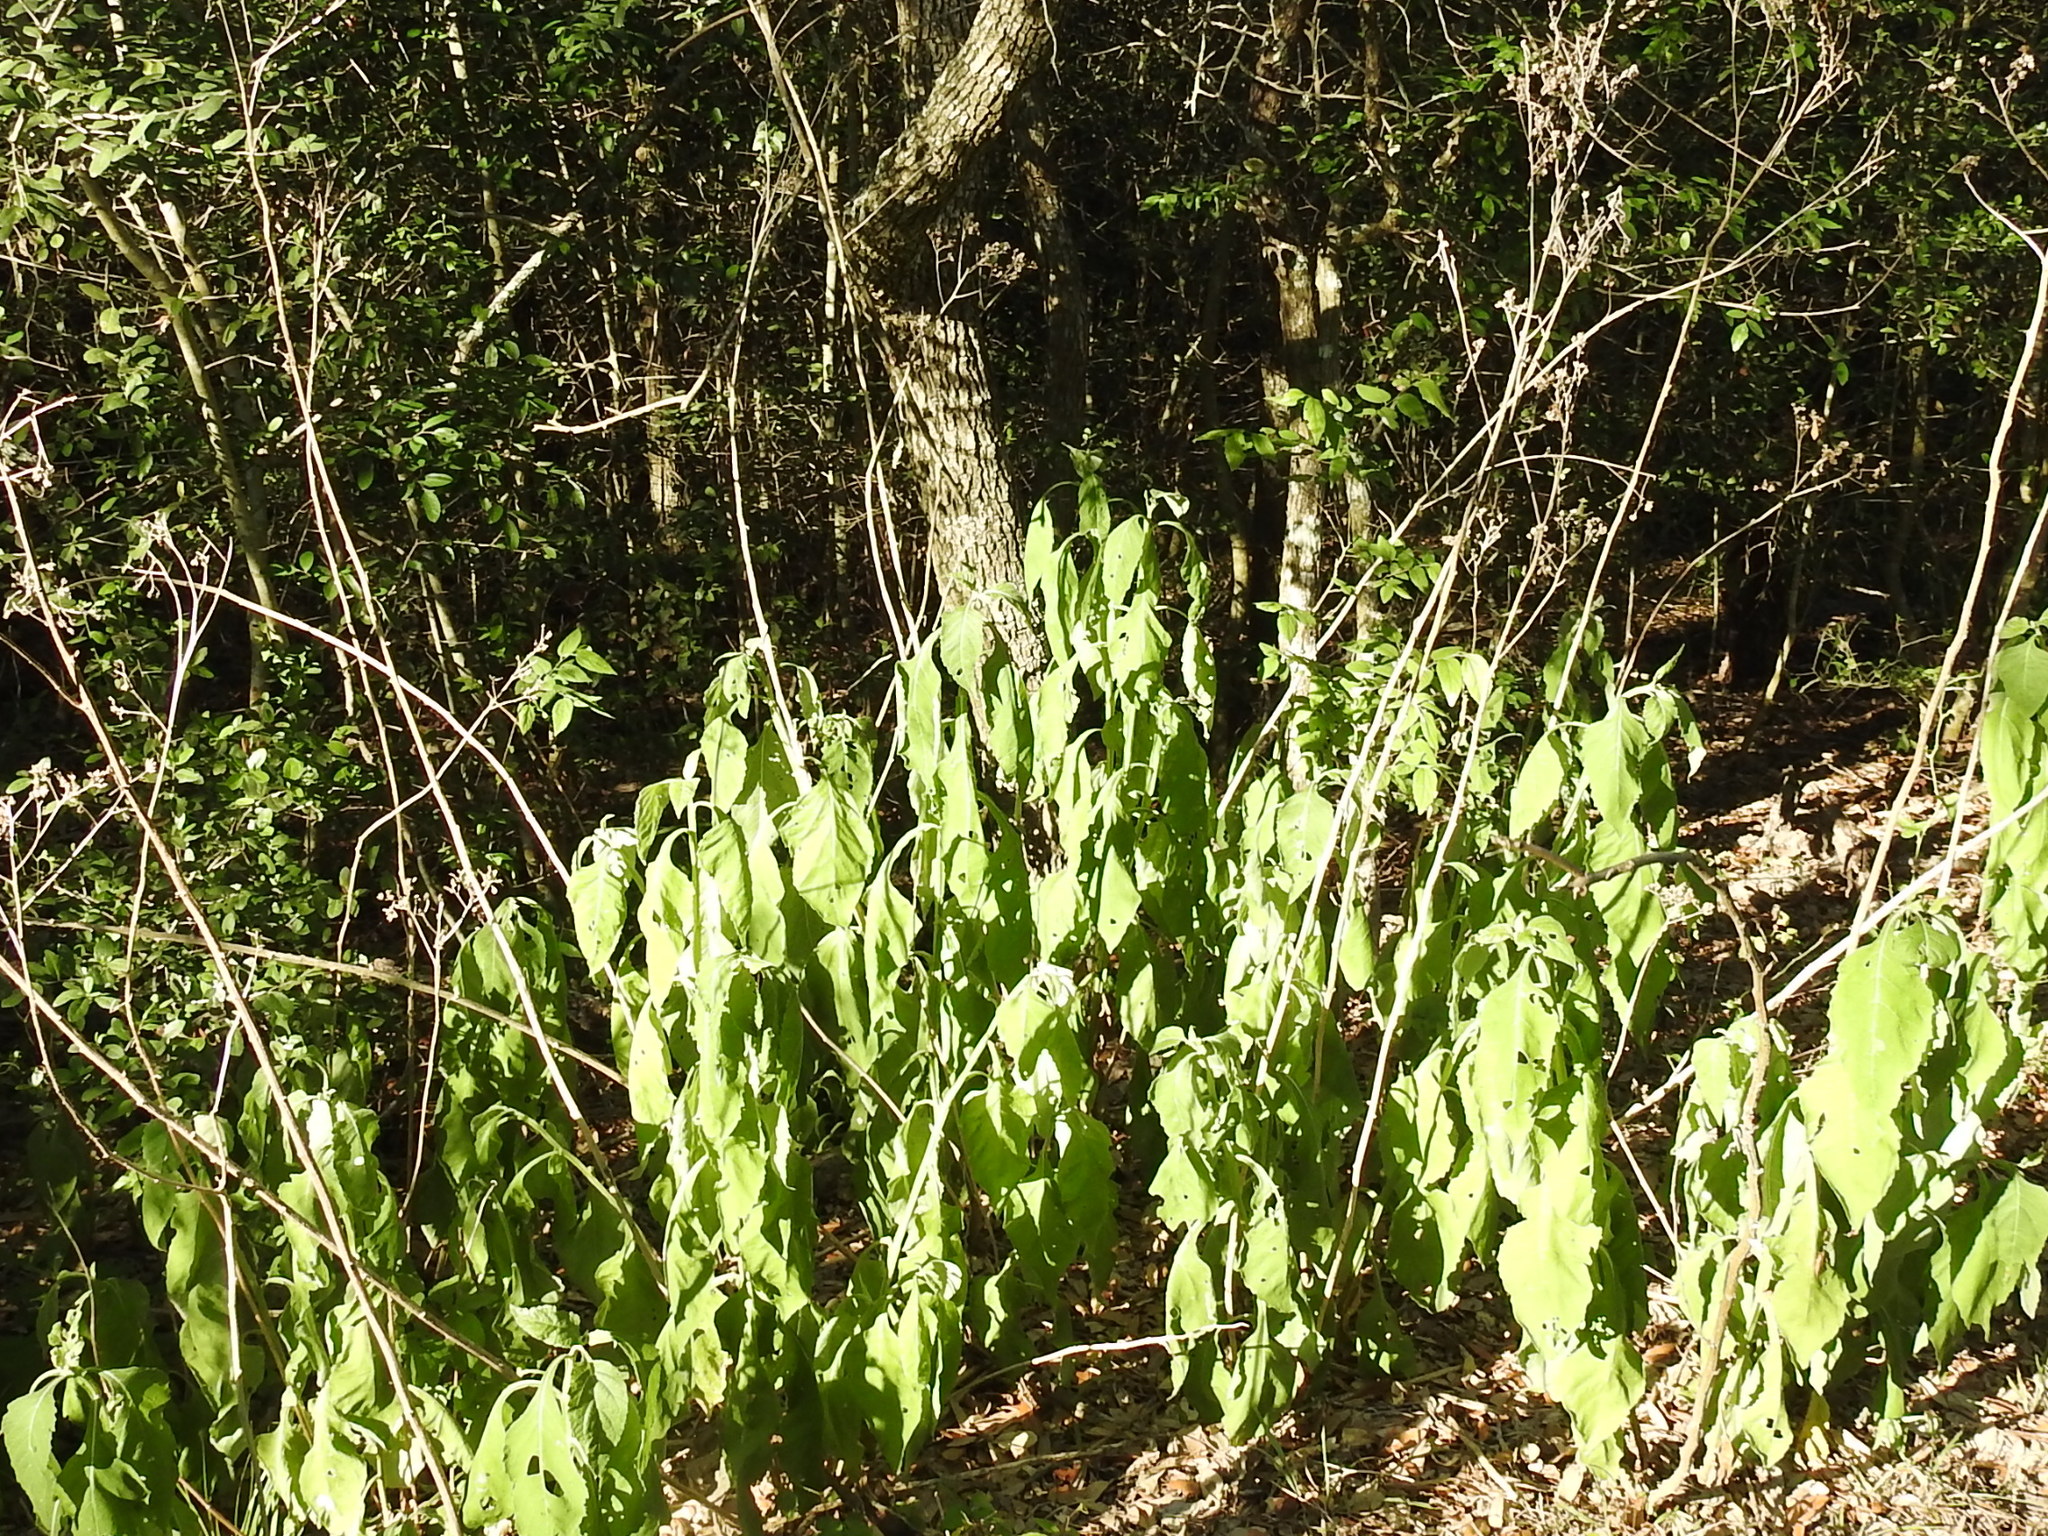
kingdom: Plantae
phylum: Tracheophyta
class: Magnoliopsida
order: Asterales
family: Asteraceae
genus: Verbesina
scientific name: Verbesina virginica
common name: Frostweed
